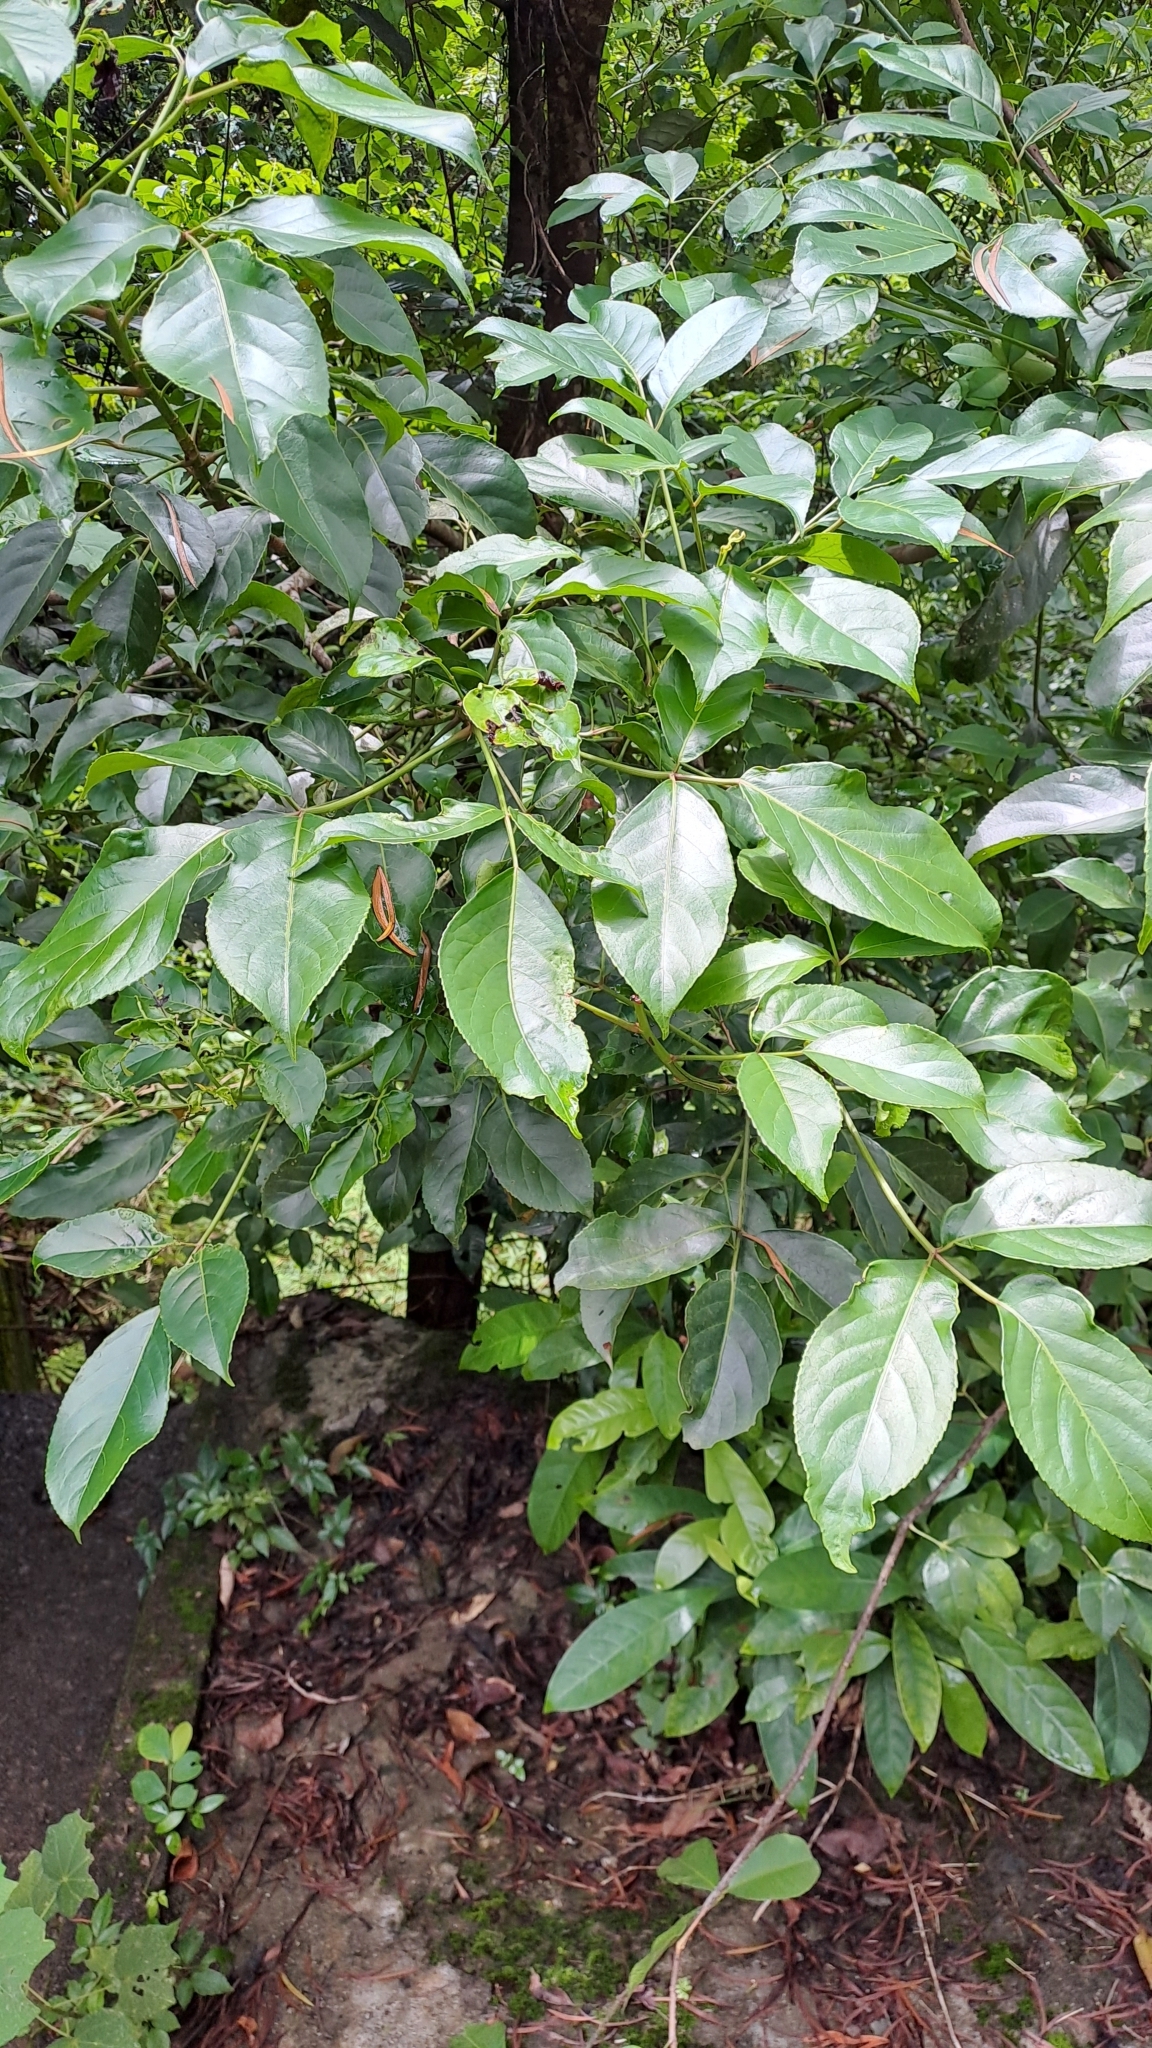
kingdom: Plantae
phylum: Tracheophyta
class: Magnoliopsida
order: Malpighiales
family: Phyllanthaceae
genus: Bischofia
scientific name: Bischofia javanica
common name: Javanese bishopwood
